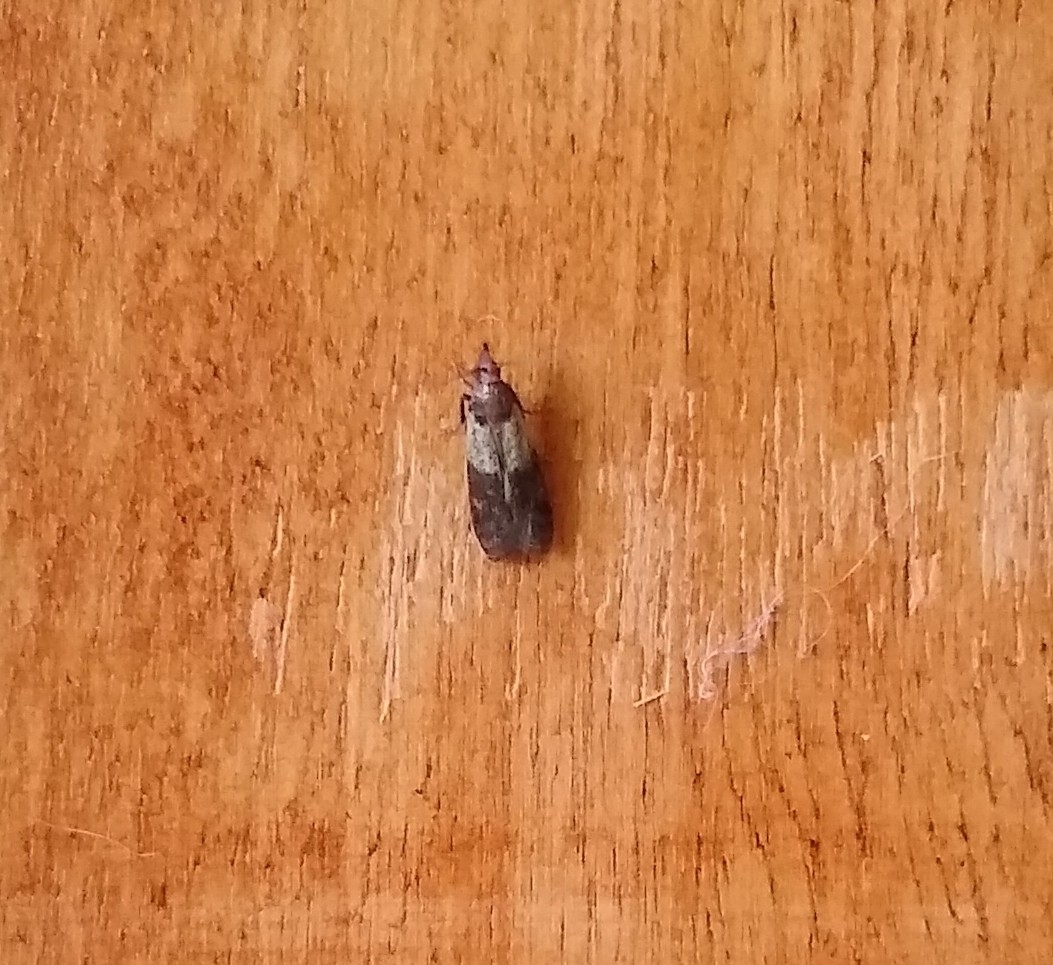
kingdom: Animalia
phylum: Arthropoda
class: Insecta
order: Lepidoptera
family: Pyralidae
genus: Plodia
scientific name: Plodia interpunctella
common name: Indian meal moth
